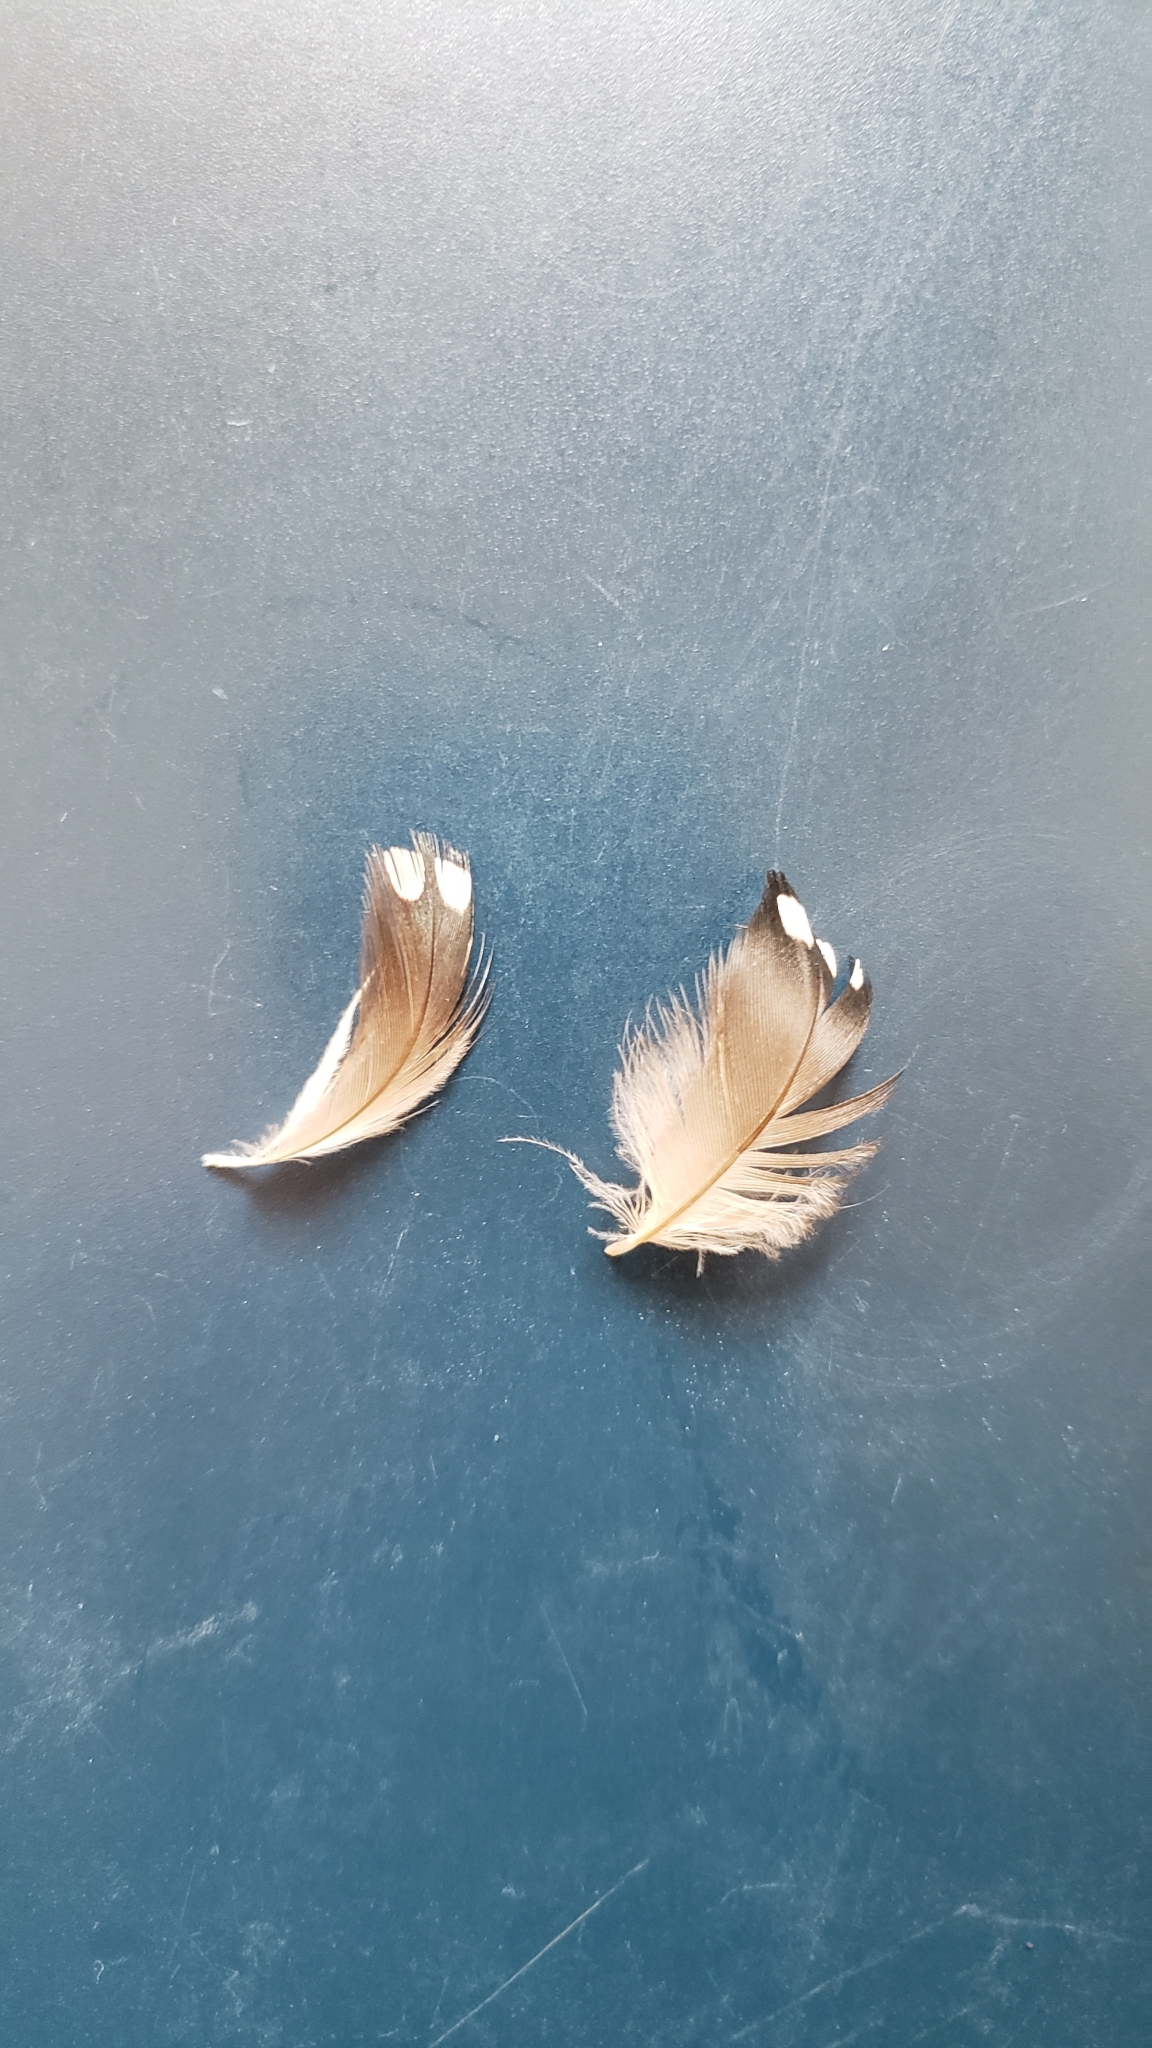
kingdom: Animalia
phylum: Chordata
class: Aves
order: Gaviiformes
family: Gaviidae
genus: Gavia
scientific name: Gavia
